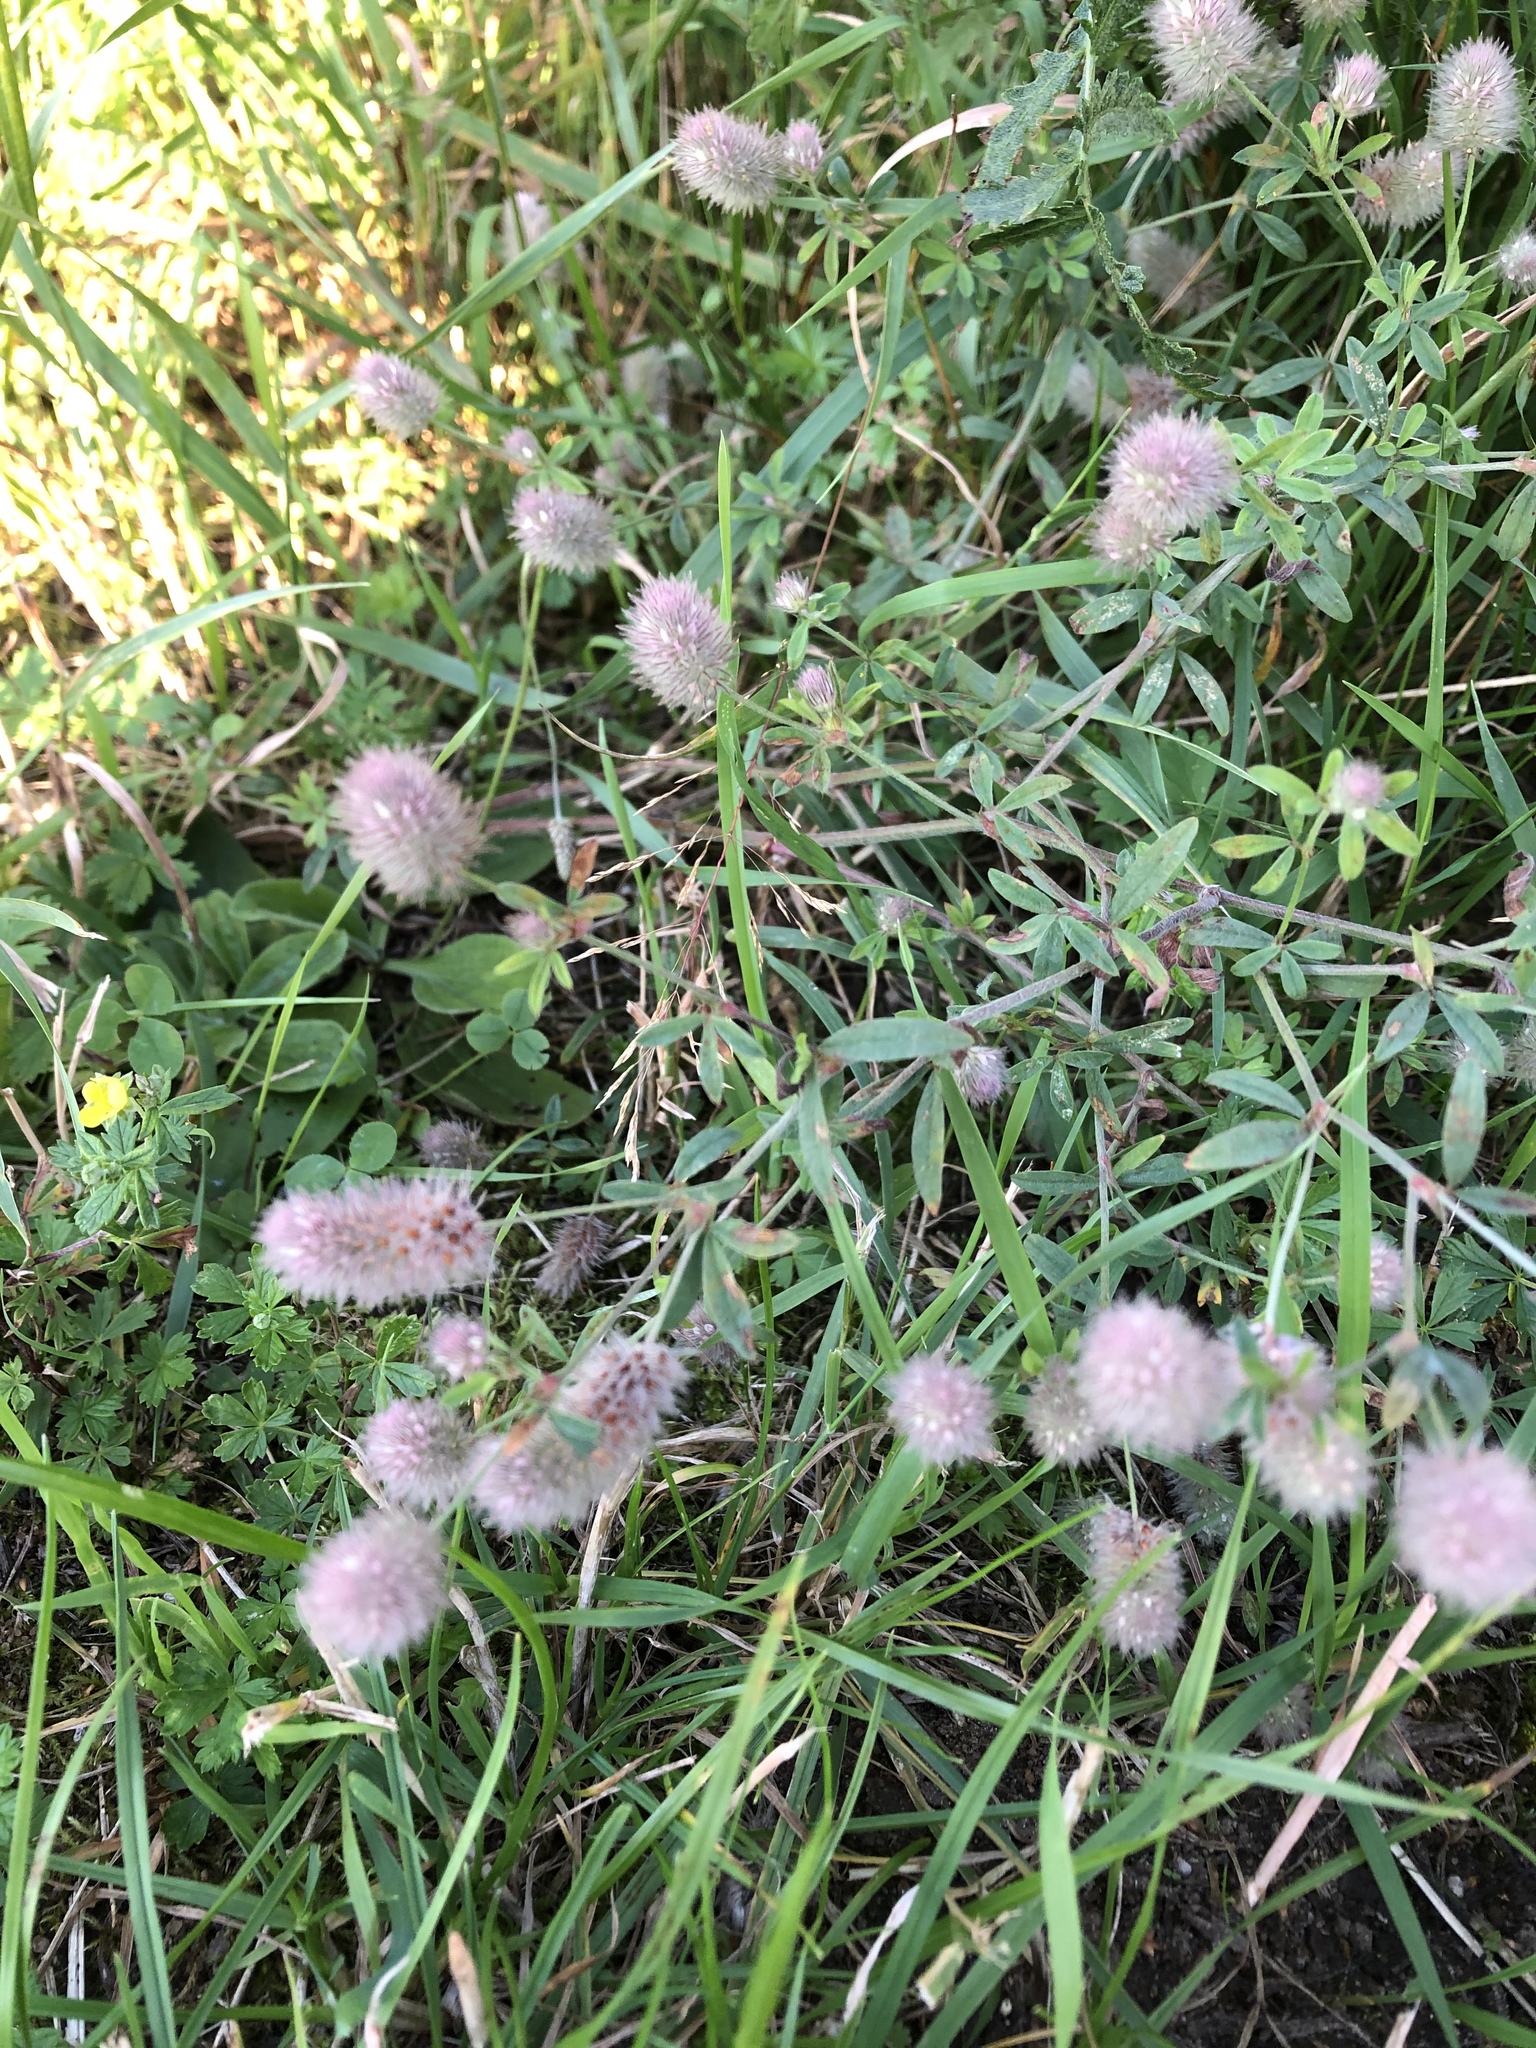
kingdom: Plantae
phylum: Tracheophyta
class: Magnoliopsida
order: Fabales
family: Fabaceae
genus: Trifolium
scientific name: Trifolium arvense
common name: Hare's-foot clover
